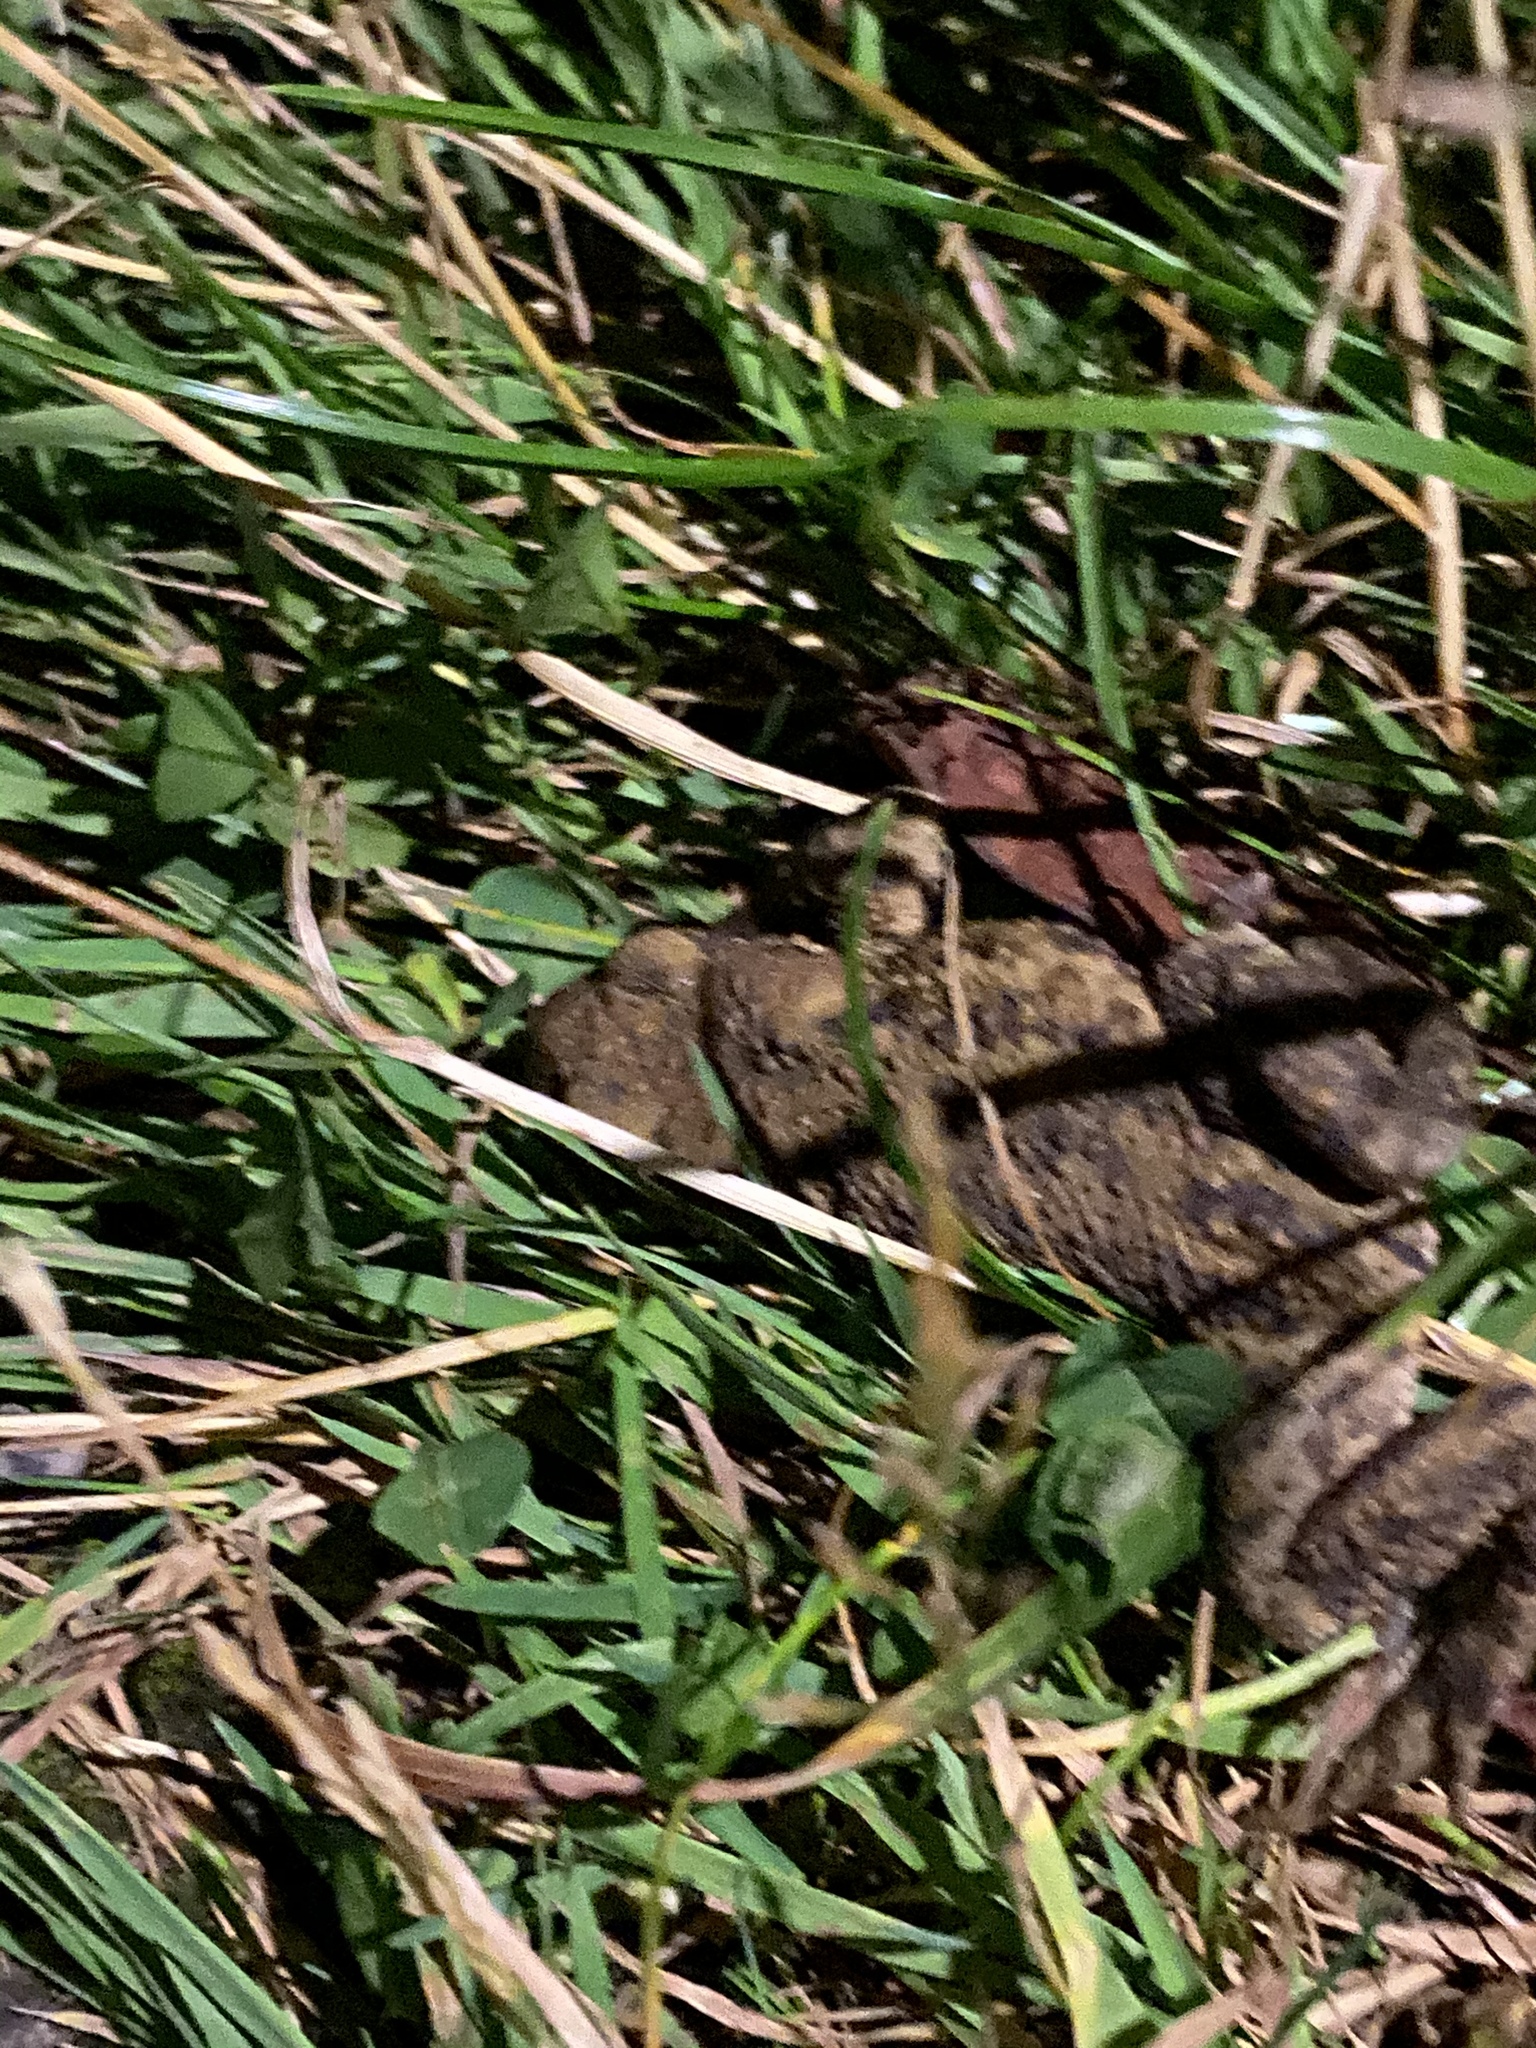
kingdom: Animalia
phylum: Chordata
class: Amphibia
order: Anura
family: Bufonidae
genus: Bufo
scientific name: Bufo bufo
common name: Common toad
